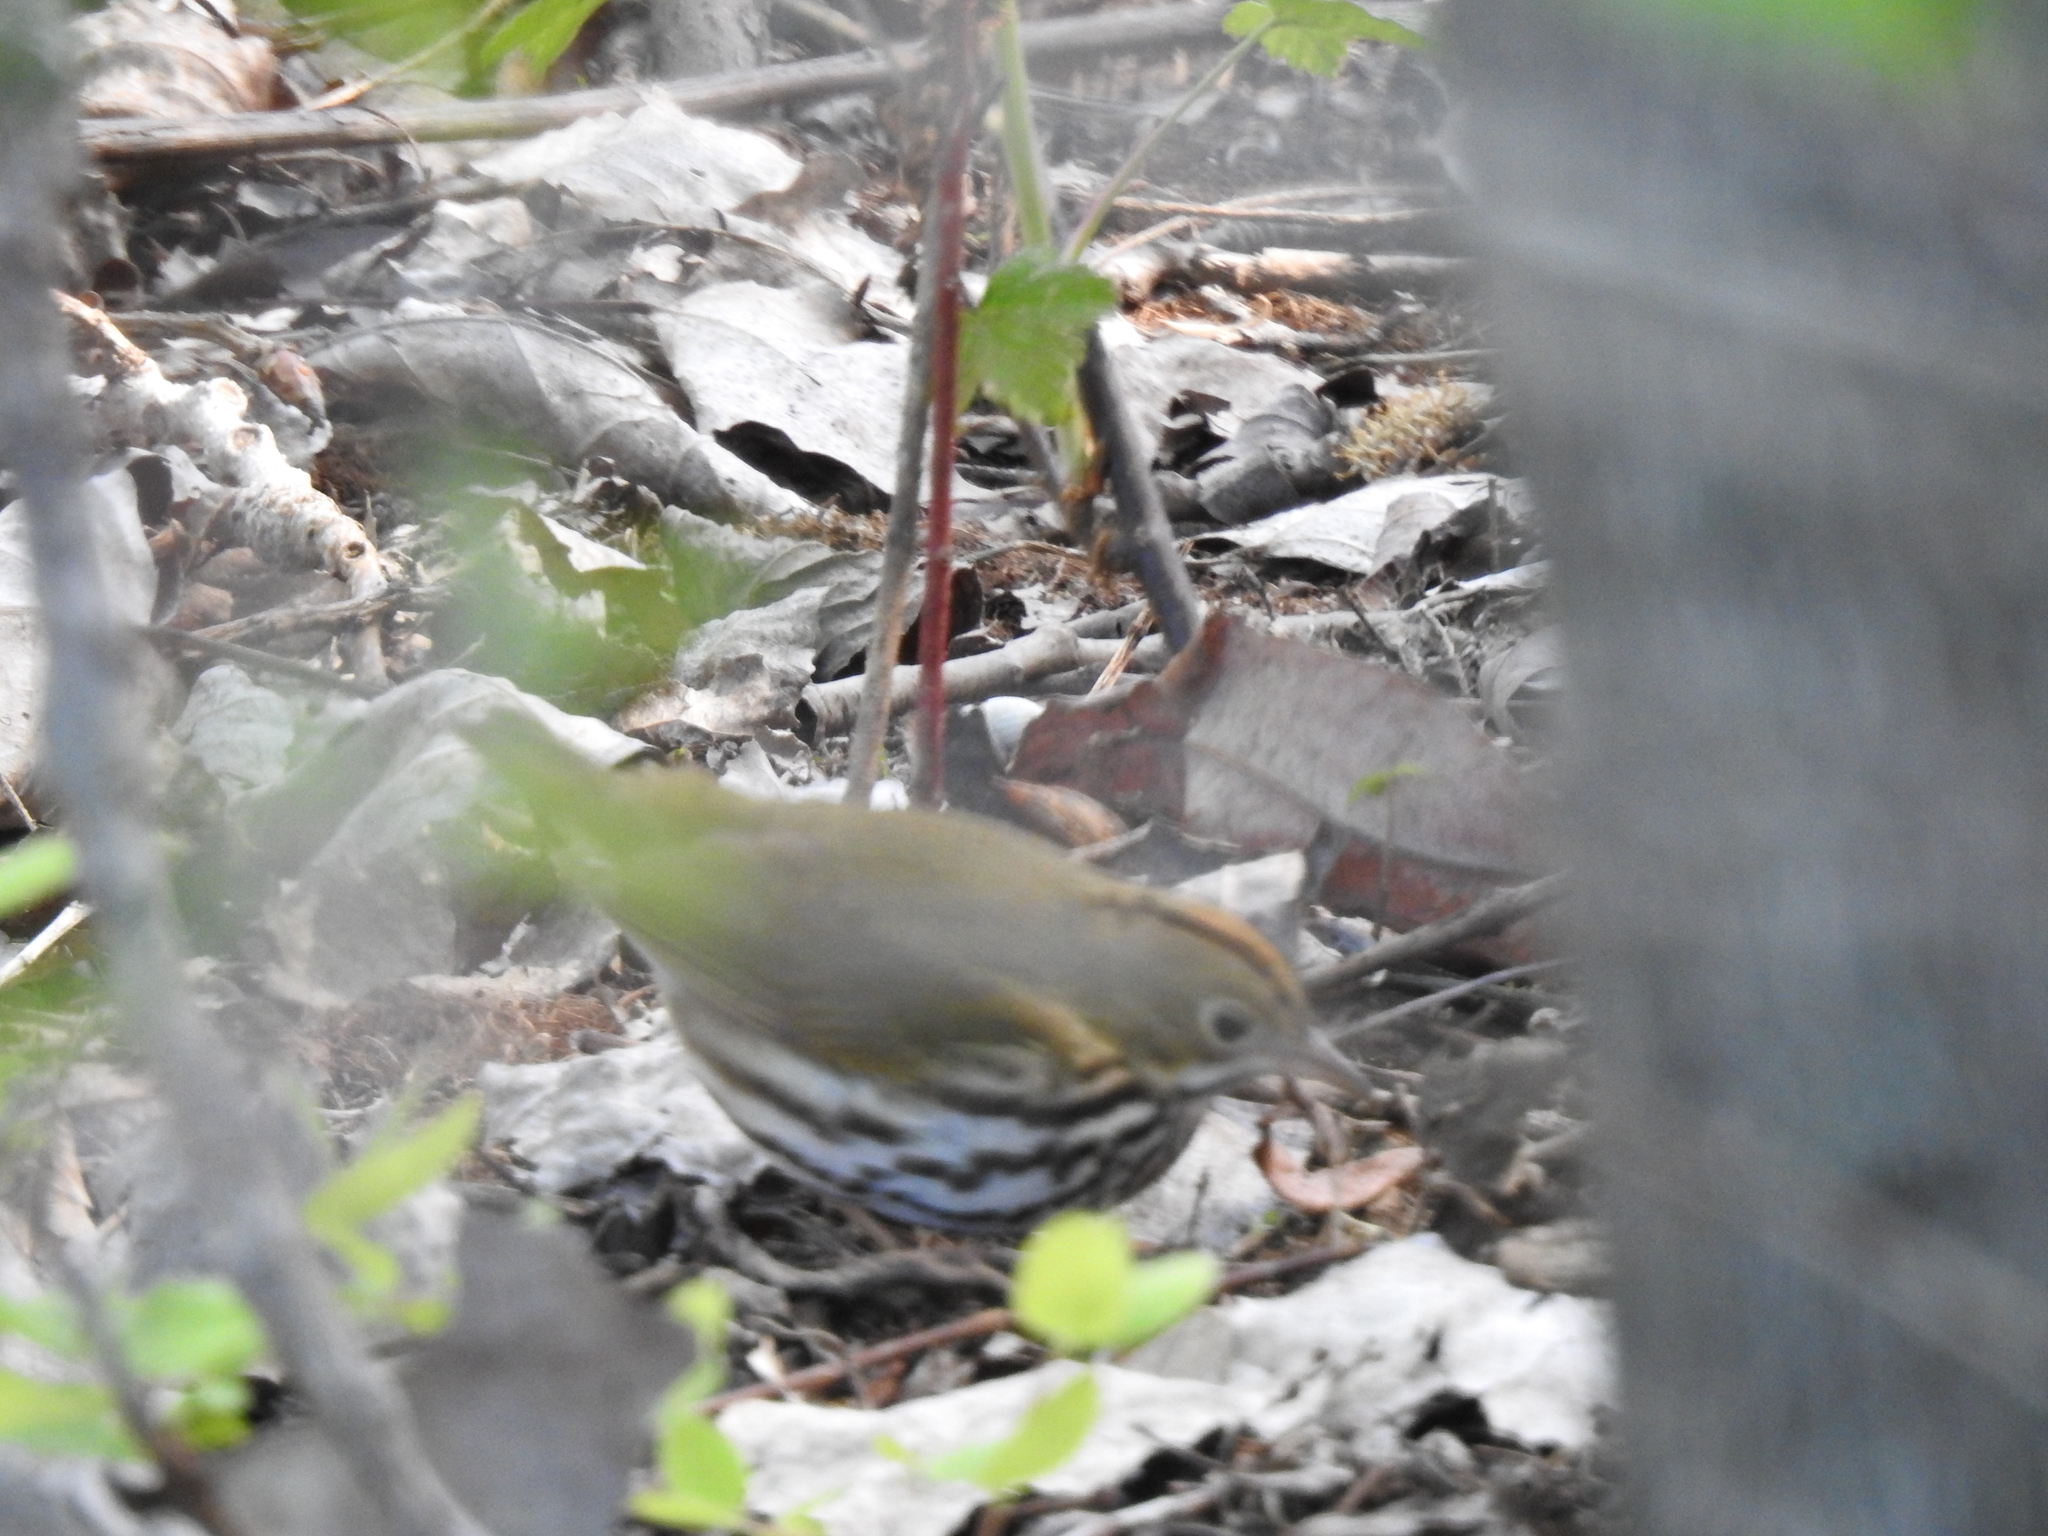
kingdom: Animalia
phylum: Chordata
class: Aves
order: Passeriformes
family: Parulidae
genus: Seiurus
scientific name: Seiurus aurocapilla
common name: Ovenbird
